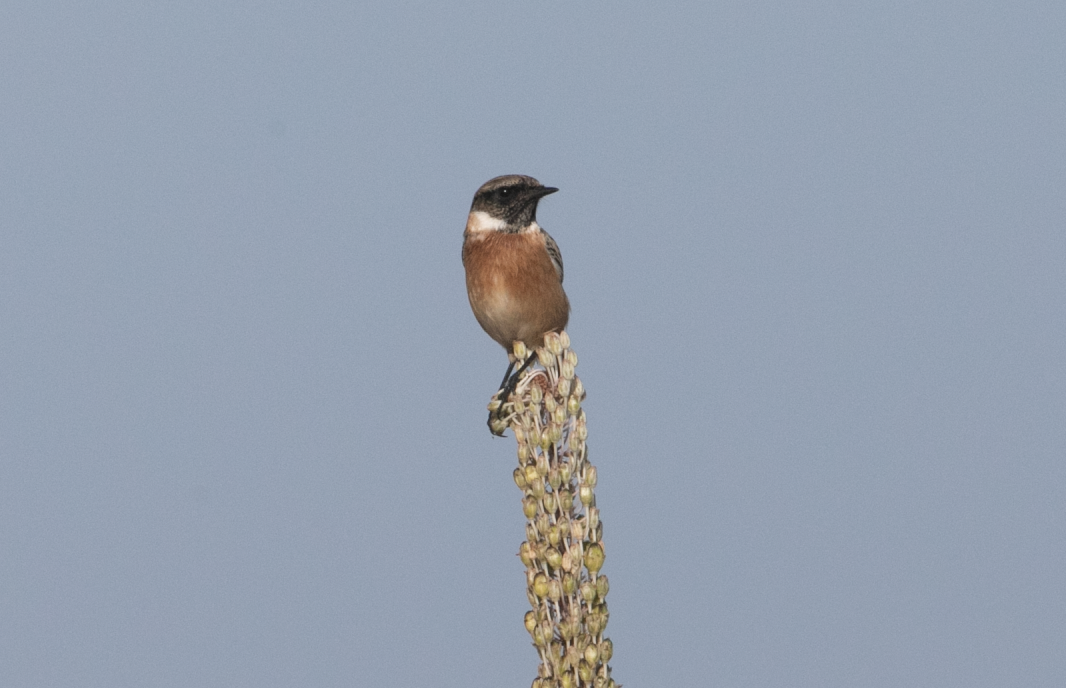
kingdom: Animalia
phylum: Chordata
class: Aves
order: Passeriformes
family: Muscicapidae
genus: Saxicola
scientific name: Saxicola rubicola
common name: European stonechat
